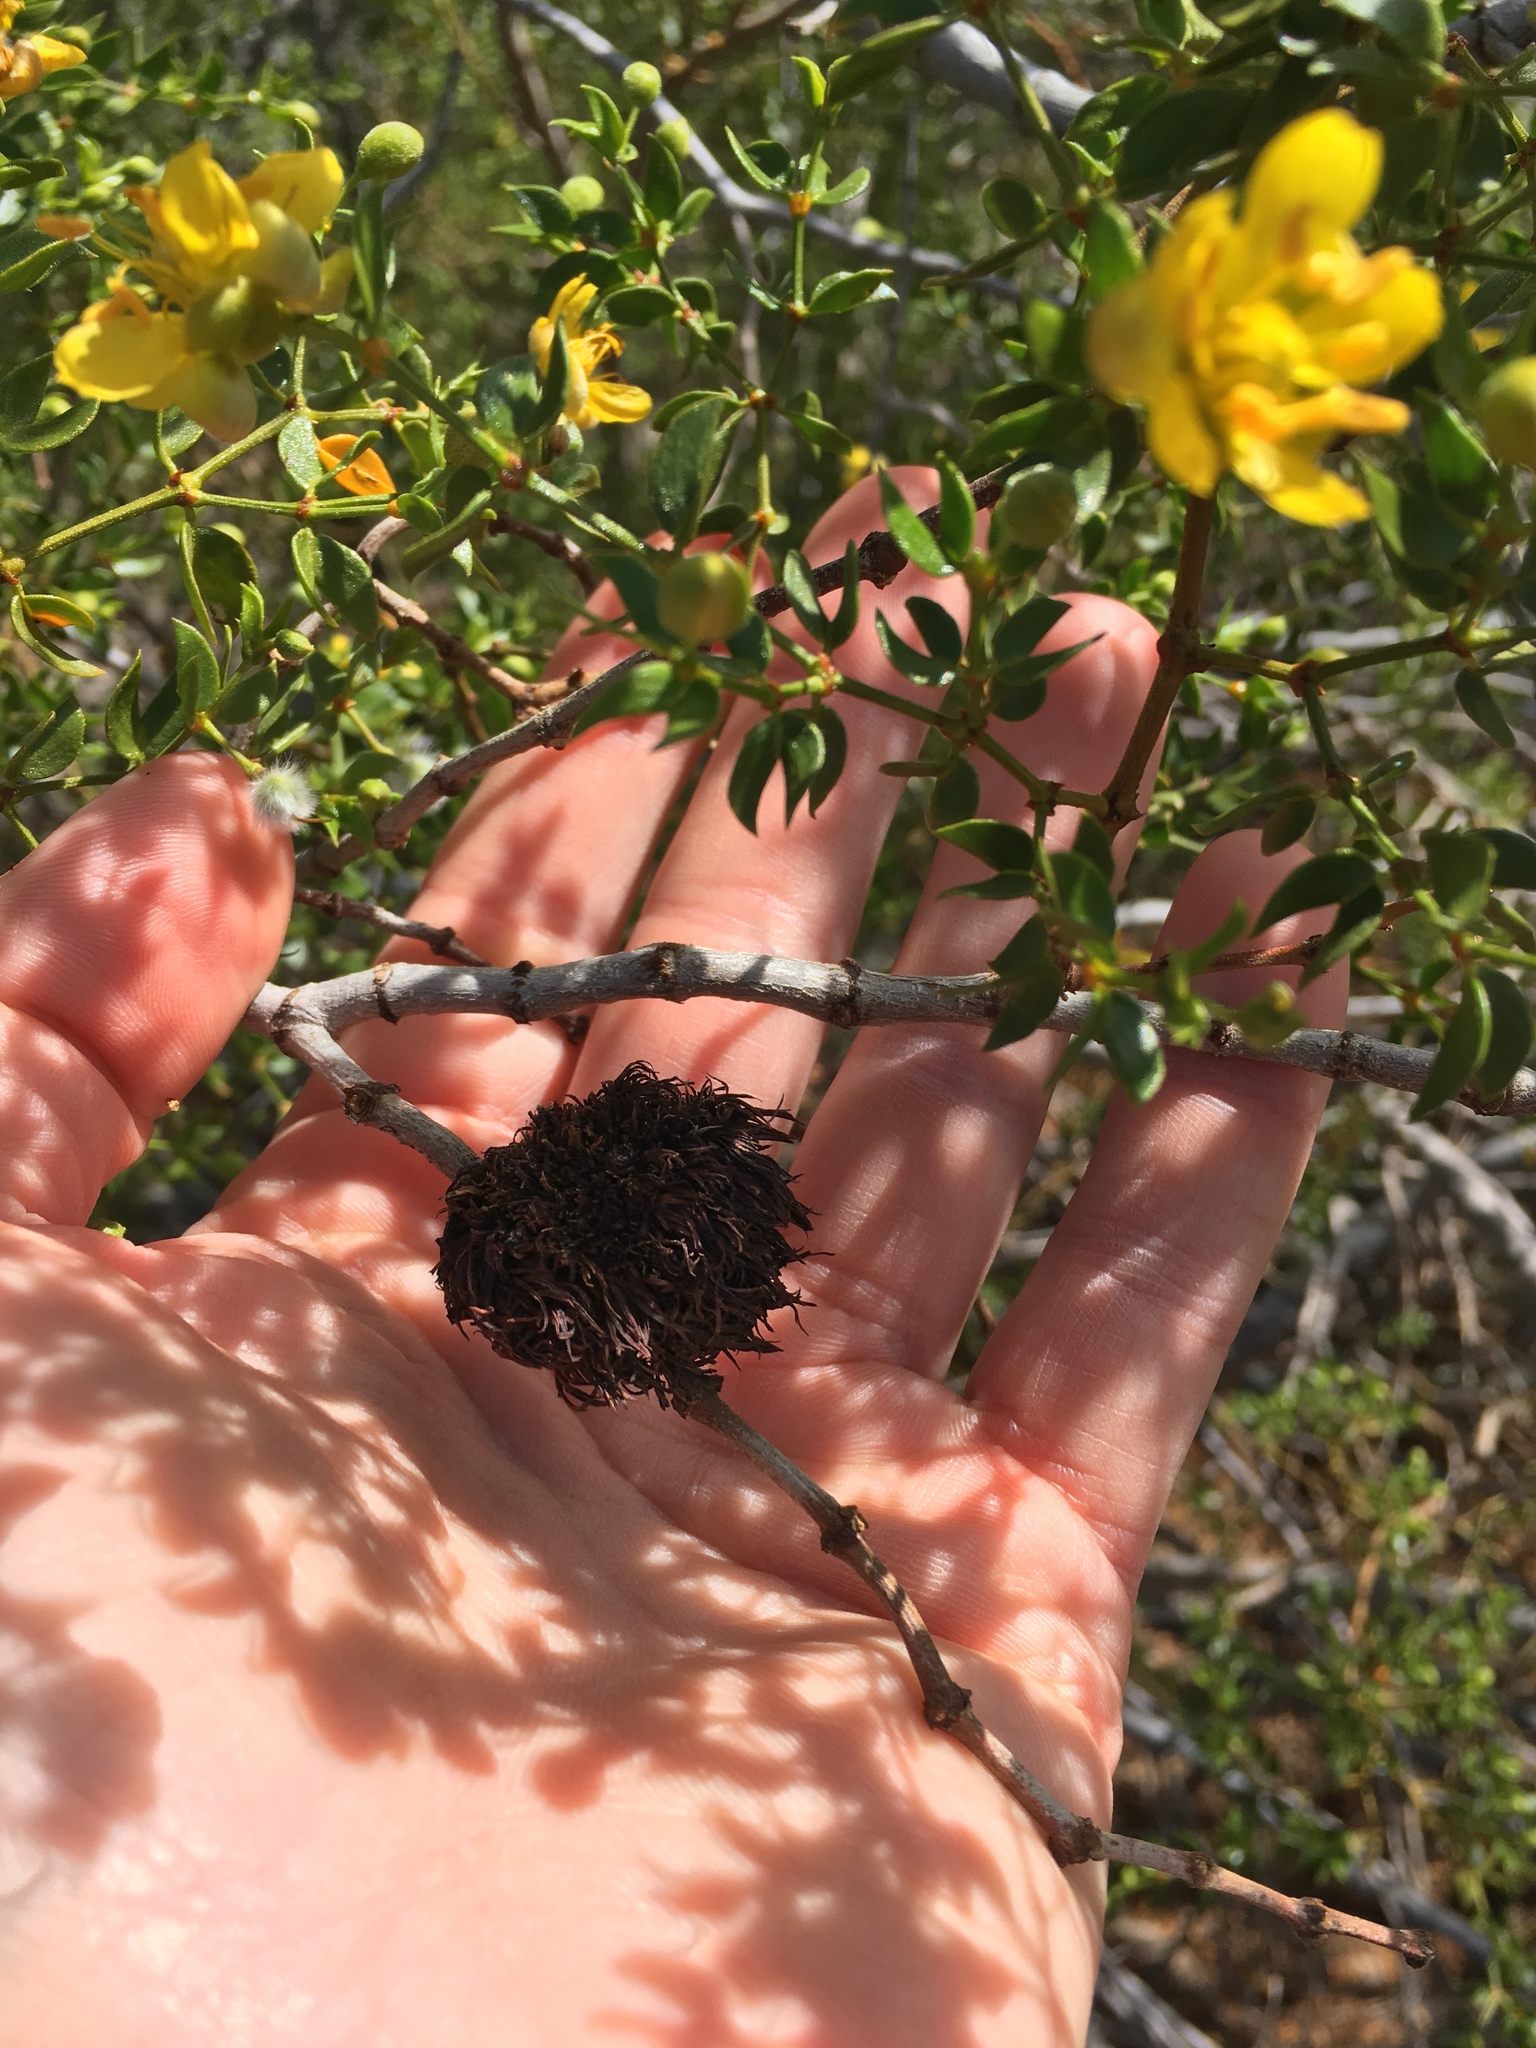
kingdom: Animalia
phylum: Arthropoda
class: Insecta
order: Diptera
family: Cecidomyiidae
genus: Asphondylia
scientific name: Asphondylia auripila
